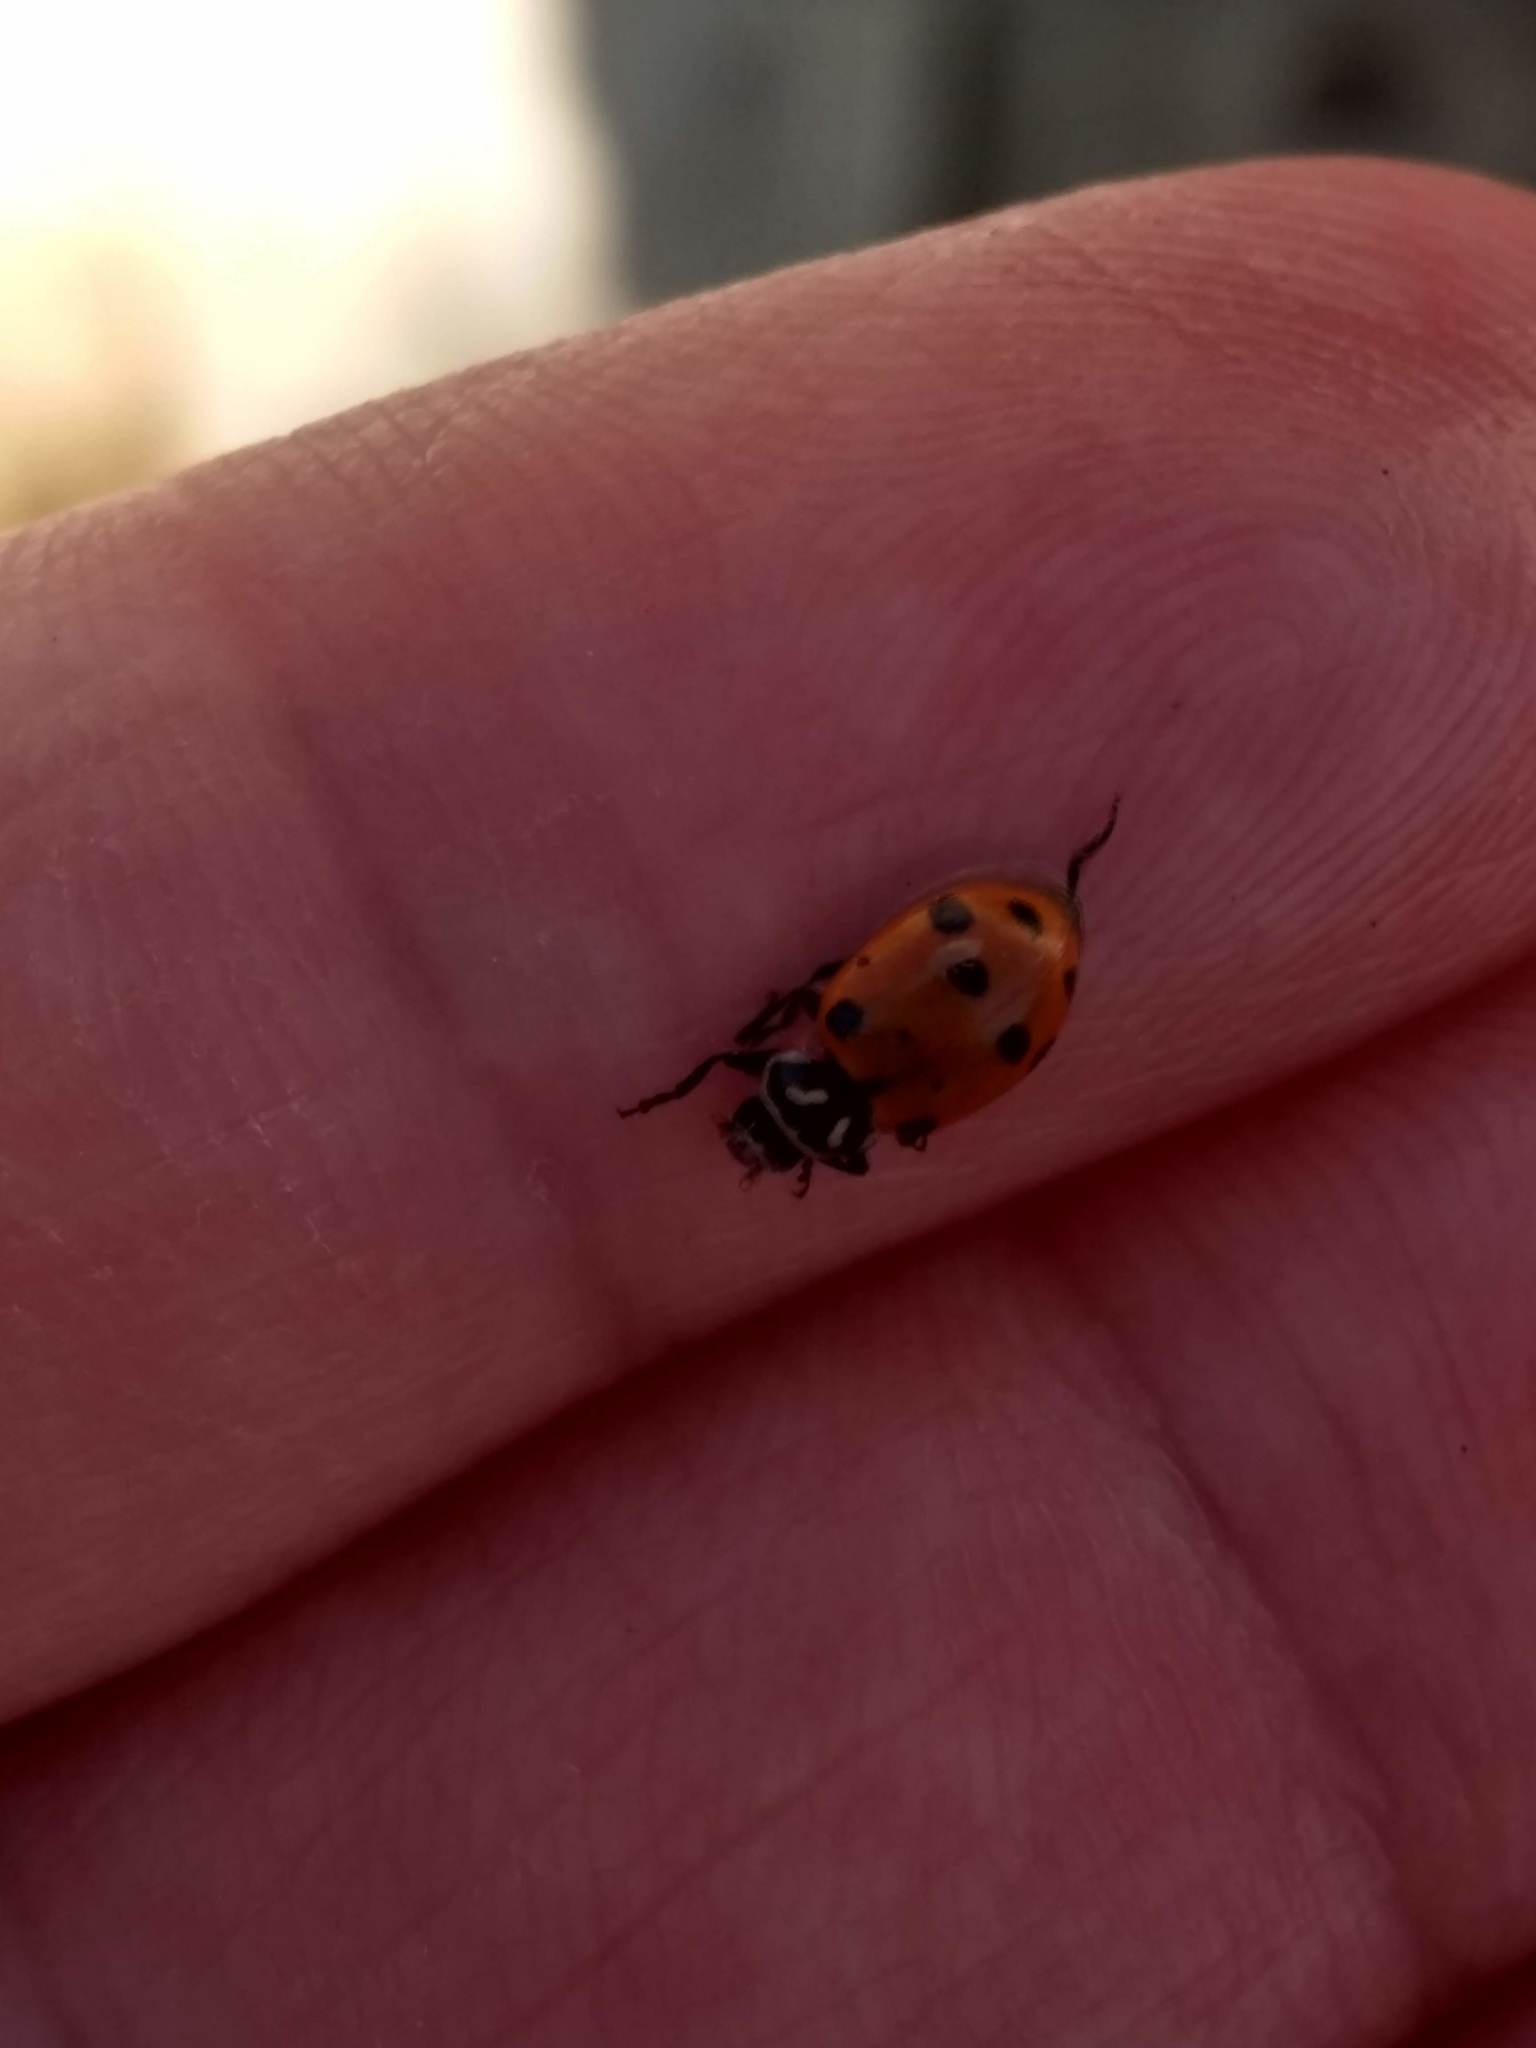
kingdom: Animalia
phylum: Arthropoda
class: Insecta
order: Coleoptera
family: Coccinellidae
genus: Hippodamia
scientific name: Hippodamia convergens
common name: Convergent lady beetle
